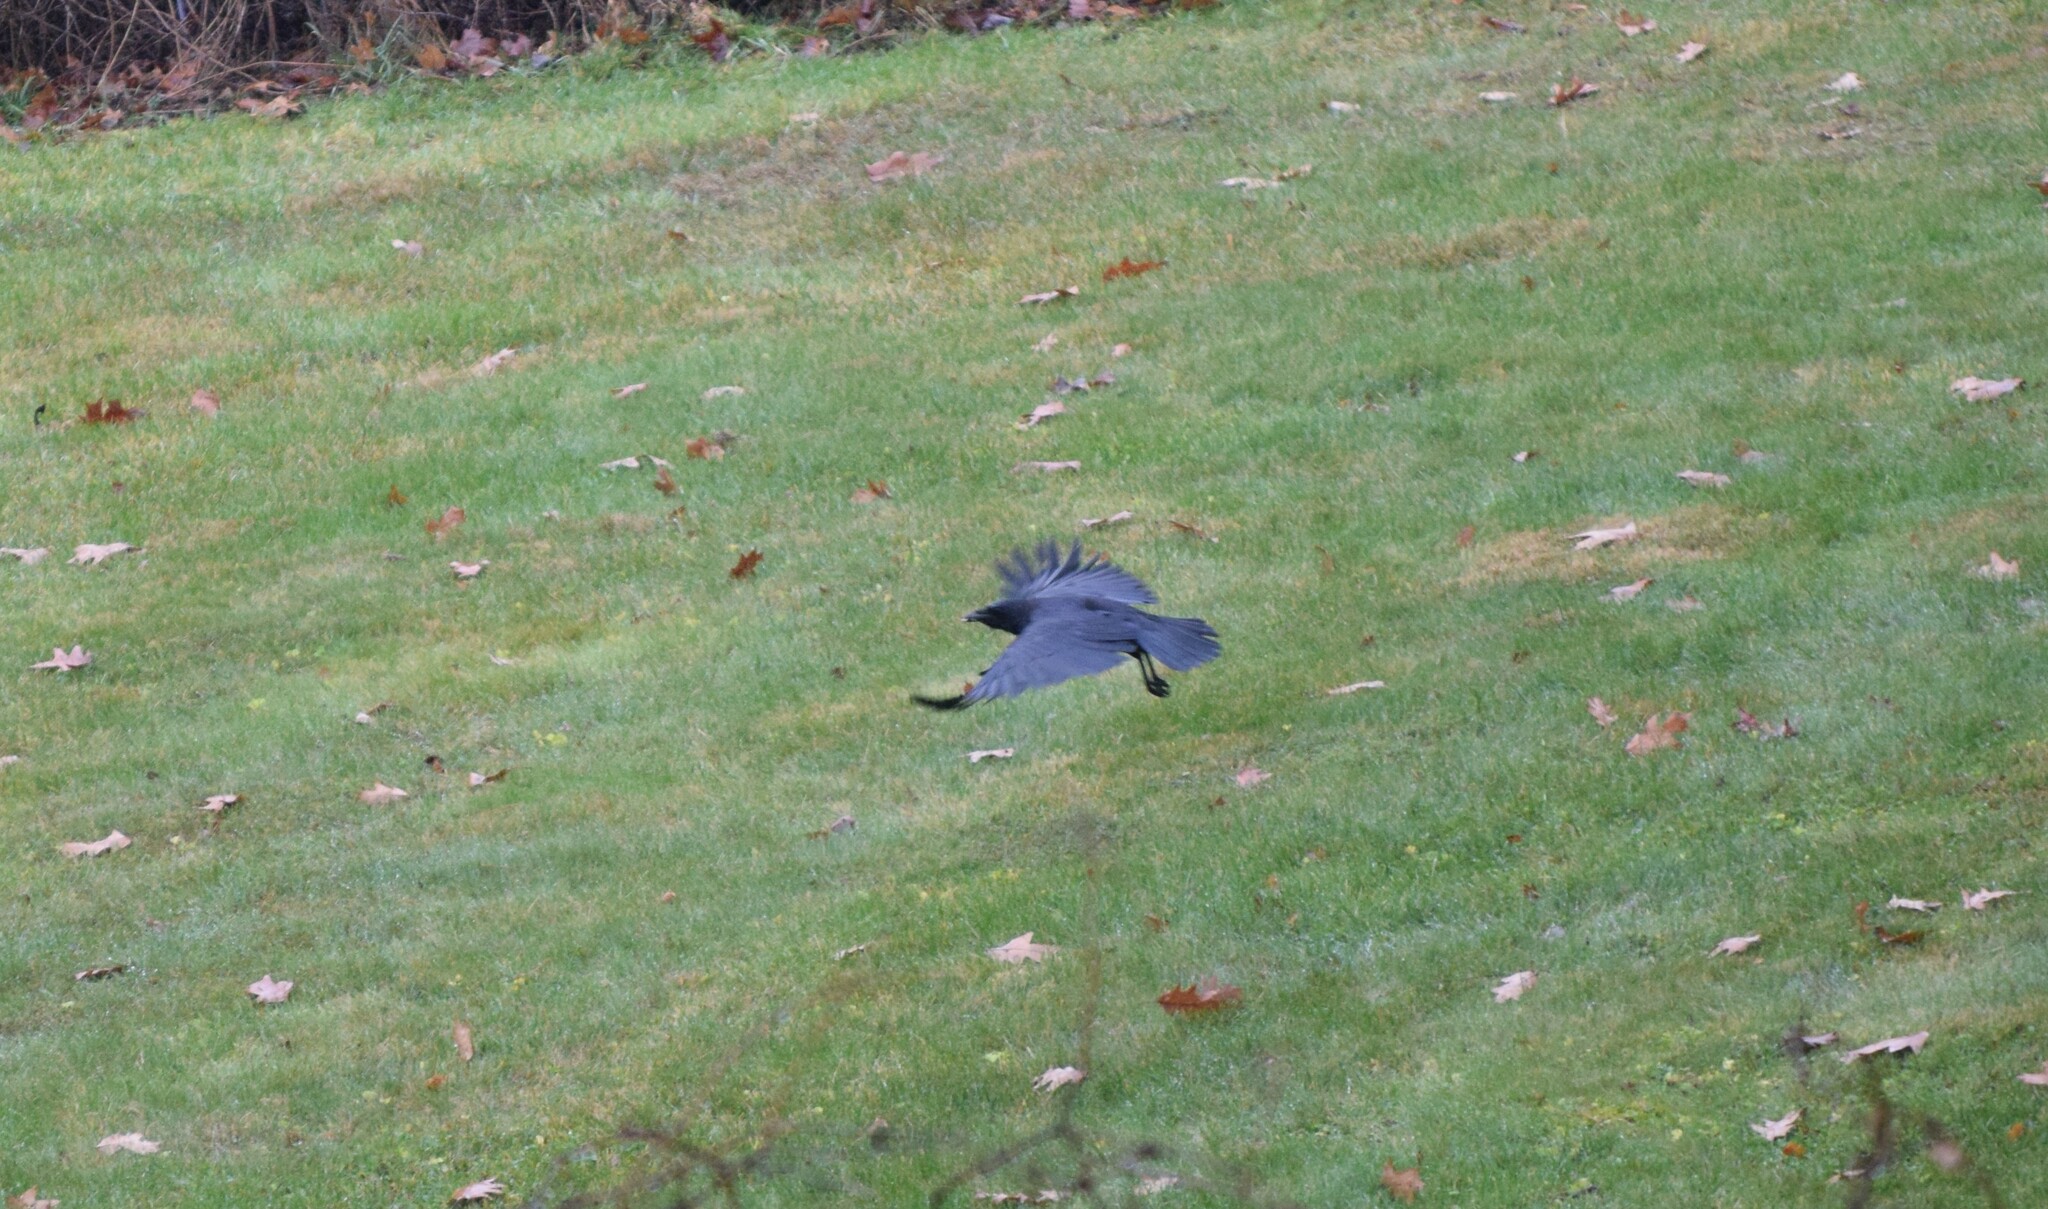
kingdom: Animalia
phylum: Chordata
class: Aves
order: Passeriformes
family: Corvidae
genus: Corvus
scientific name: Corvus
